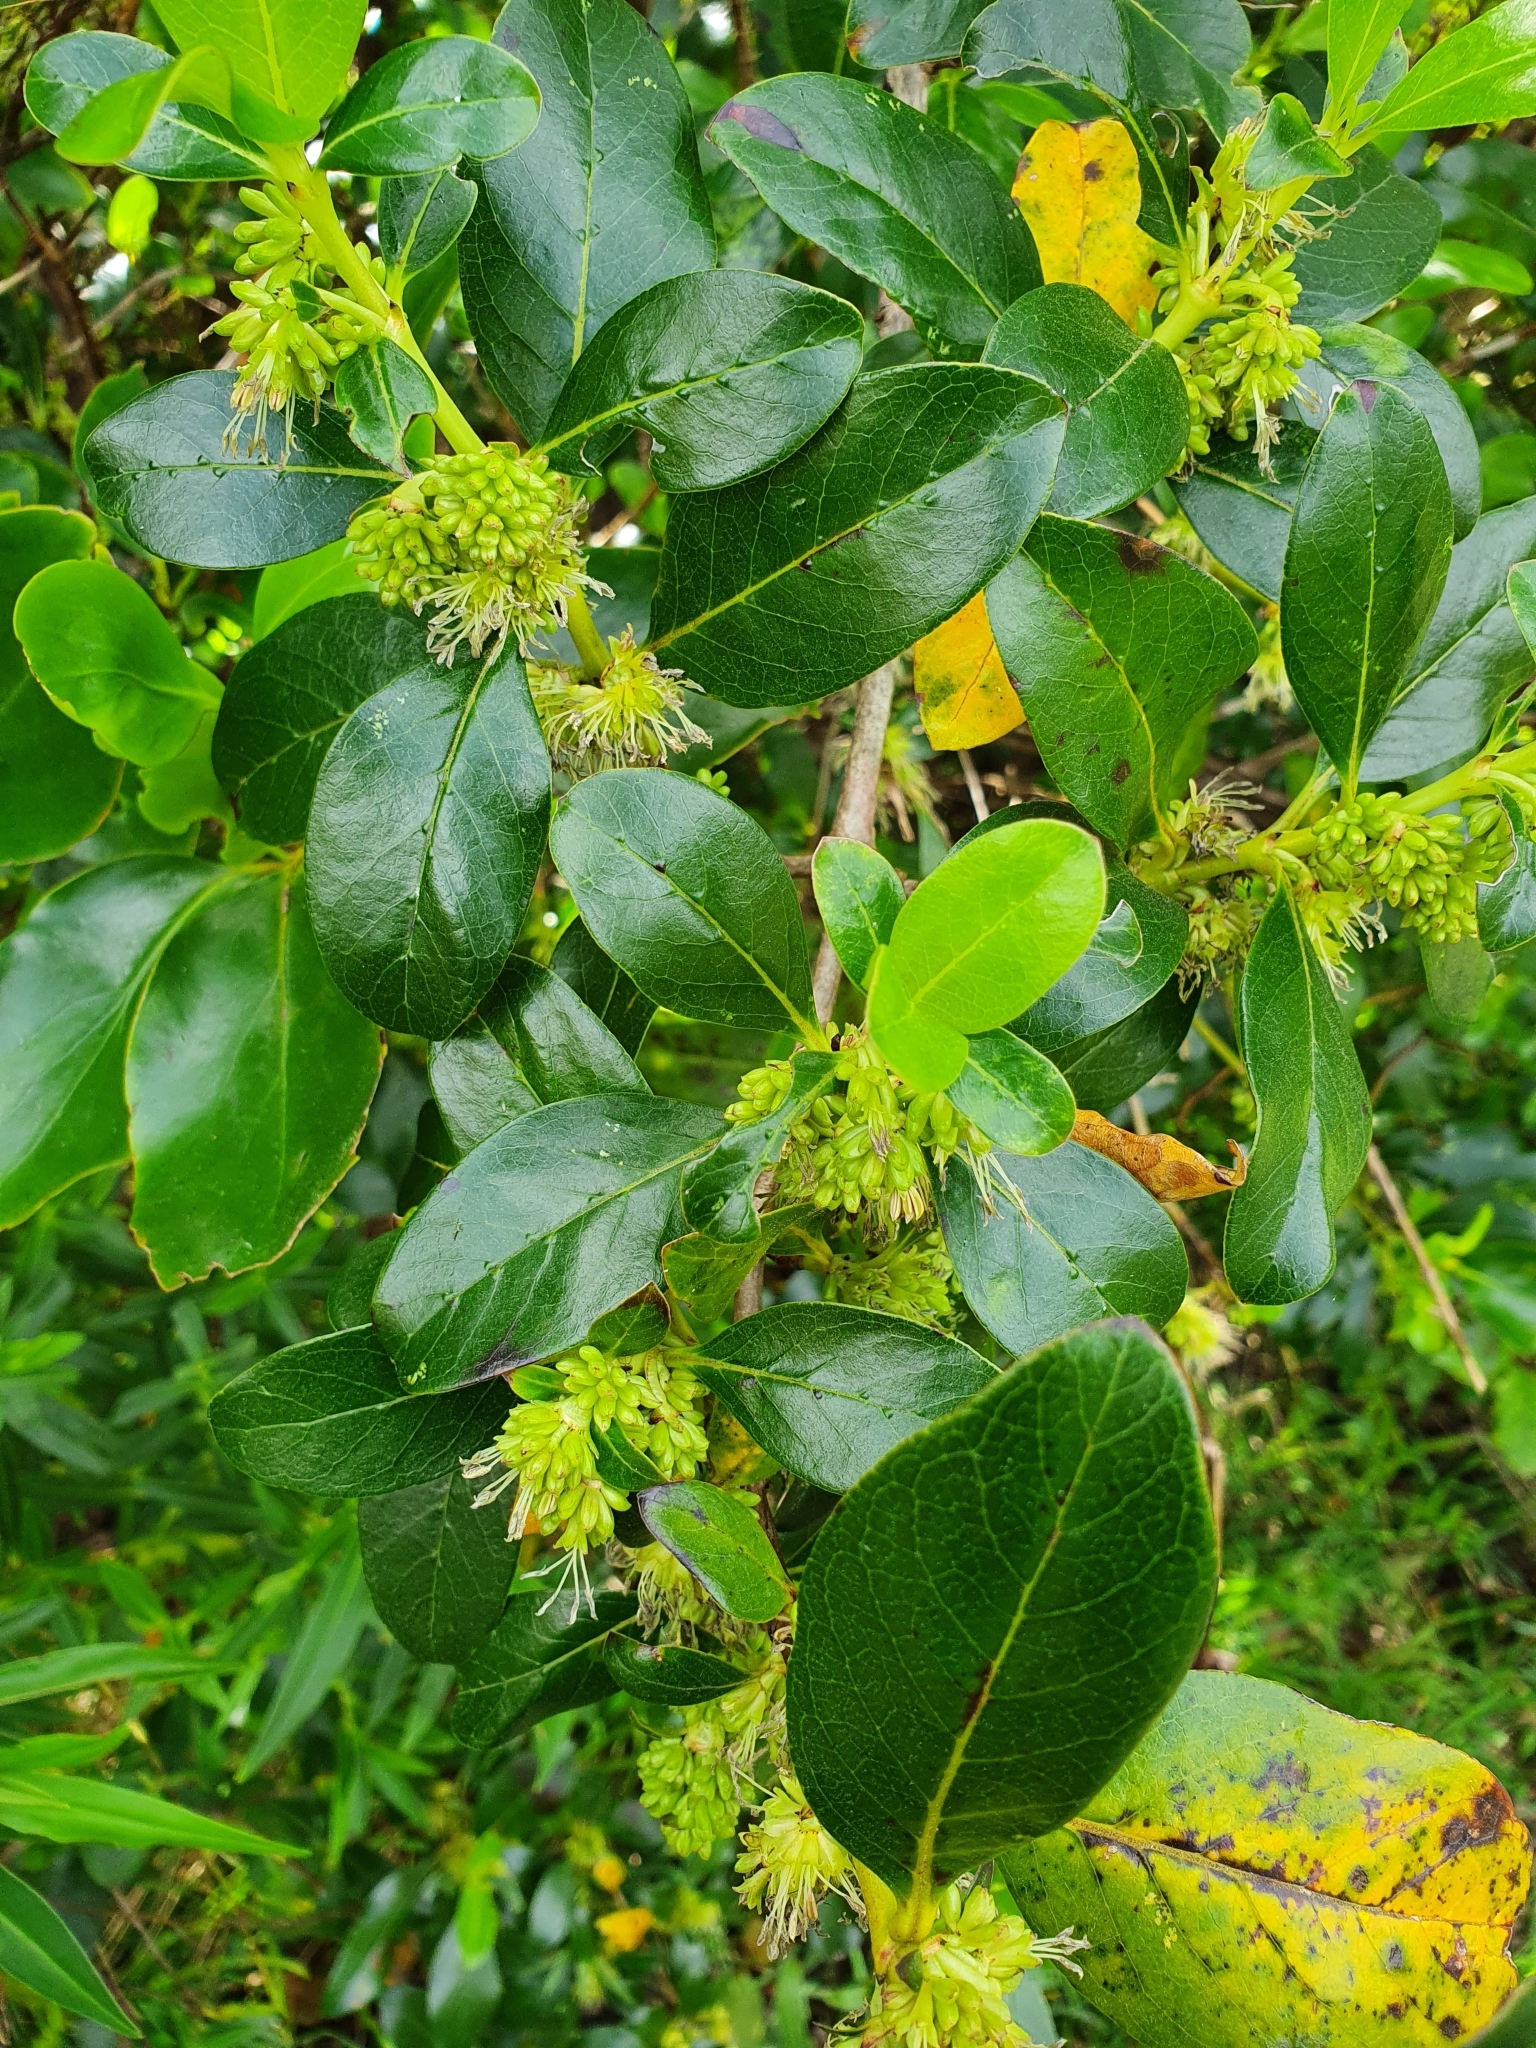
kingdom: Plantae
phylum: Tracheophyta
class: Magnoliopsida
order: Gentianales
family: Rubiaceae
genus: Coprosma
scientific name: Coprosma robusta
